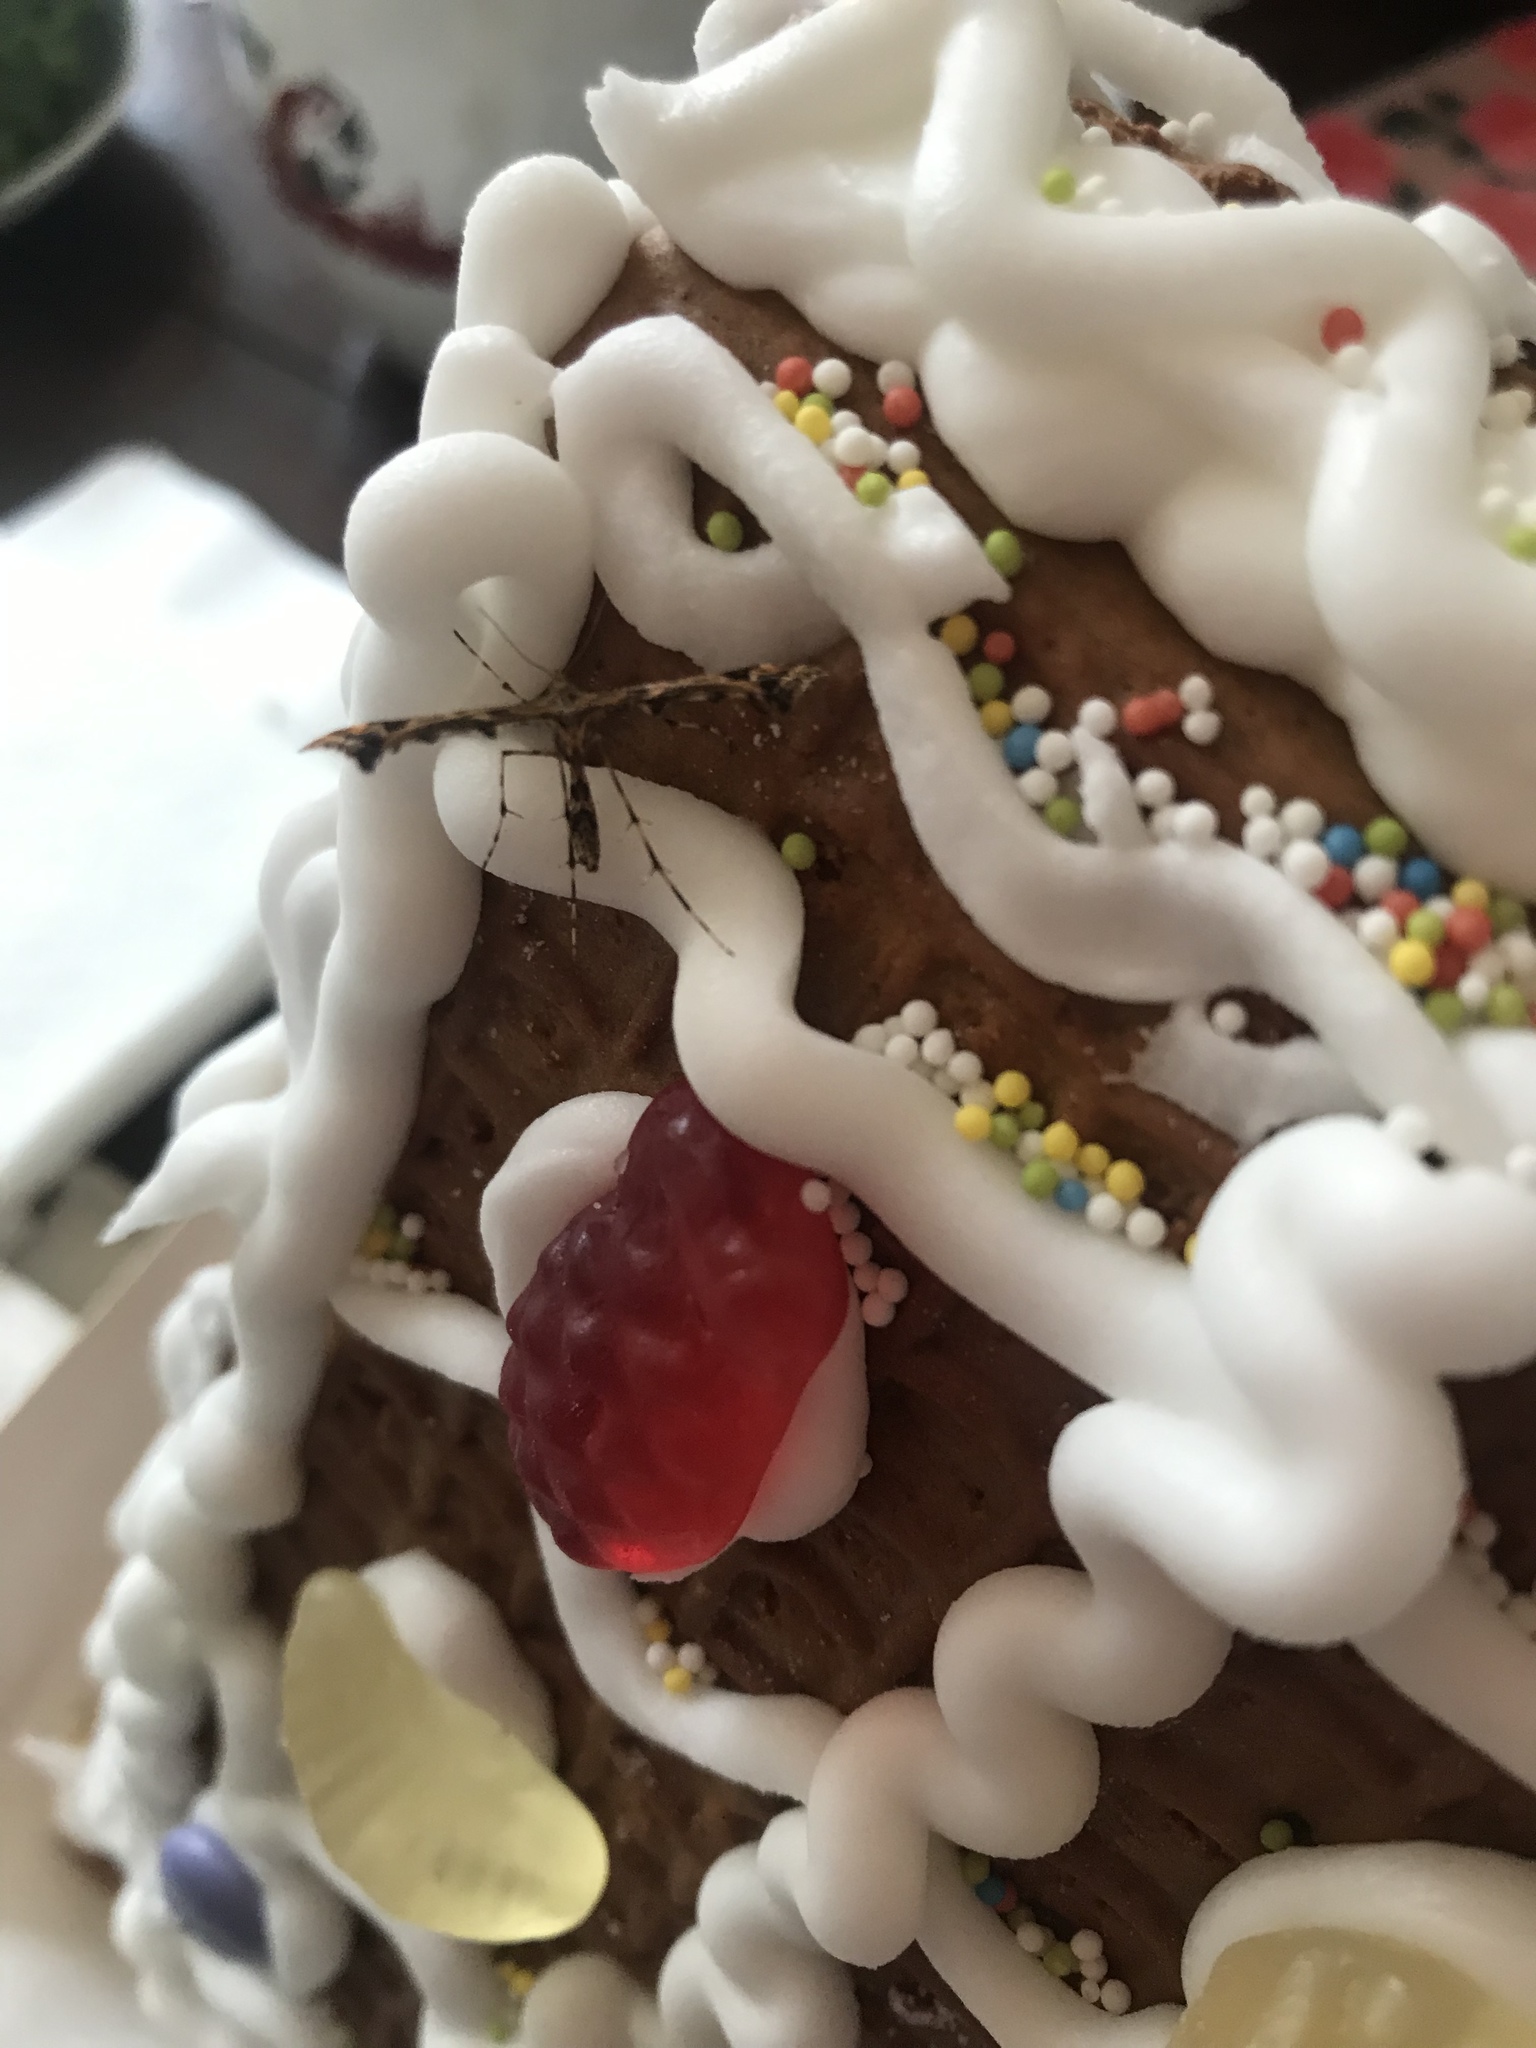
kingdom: Animalia
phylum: Arthropoda
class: Insecta
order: Lepidoptera
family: Pterophoridae
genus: Amblyptilia
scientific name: Amblyptilia pica
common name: Geranium plume moth
